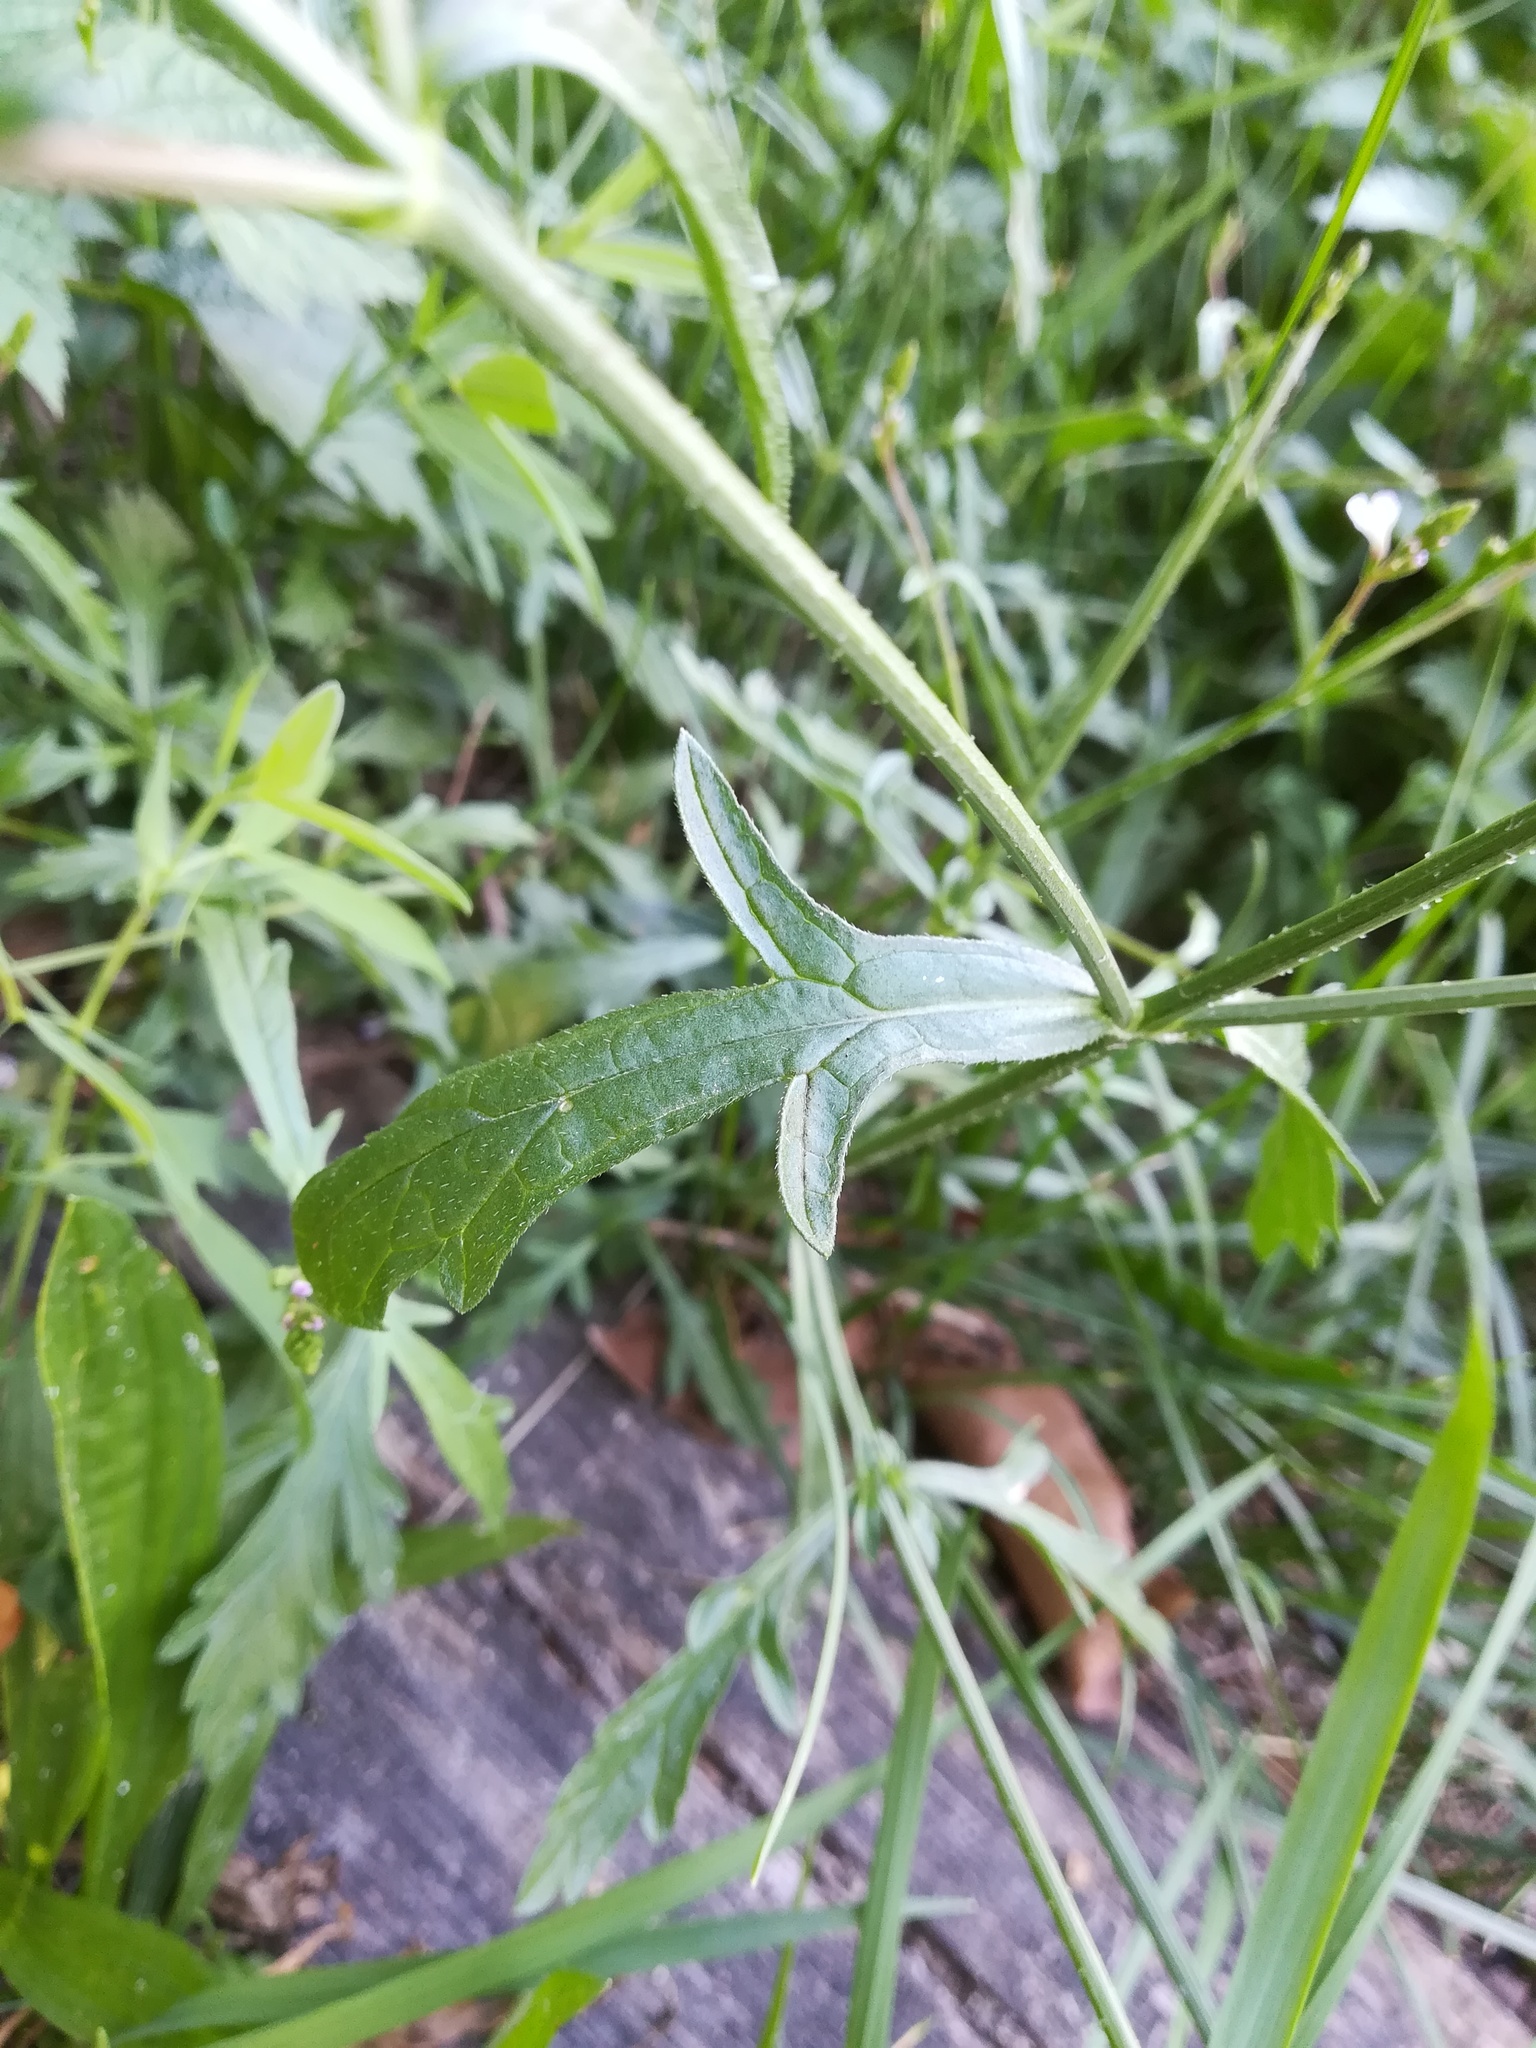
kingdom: Plantae
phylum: Tracheophyta
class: Magnoliopsida
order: Lamiales
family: Verbenaceae
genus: Verbena
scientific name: Verbena officinalis
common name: Vervain
